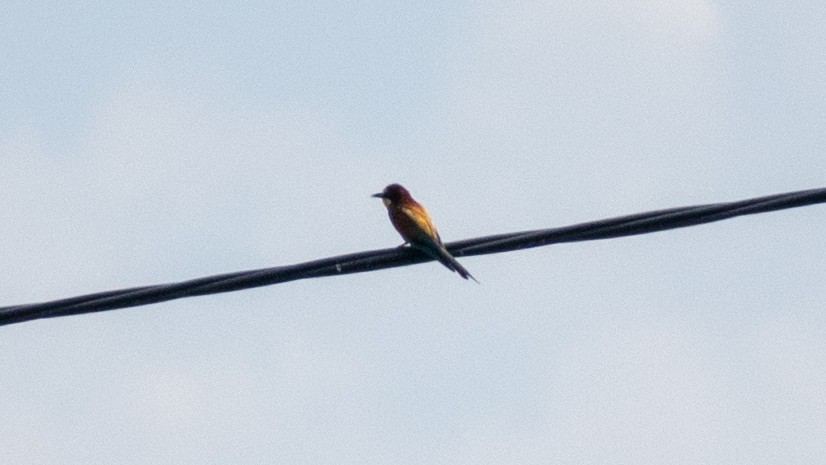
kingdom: Animalia
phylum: Chordata
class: Aves
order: Coraciiformes
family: Meropidae
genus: Merops
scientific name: Merops apiaster
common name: European bee-eater
